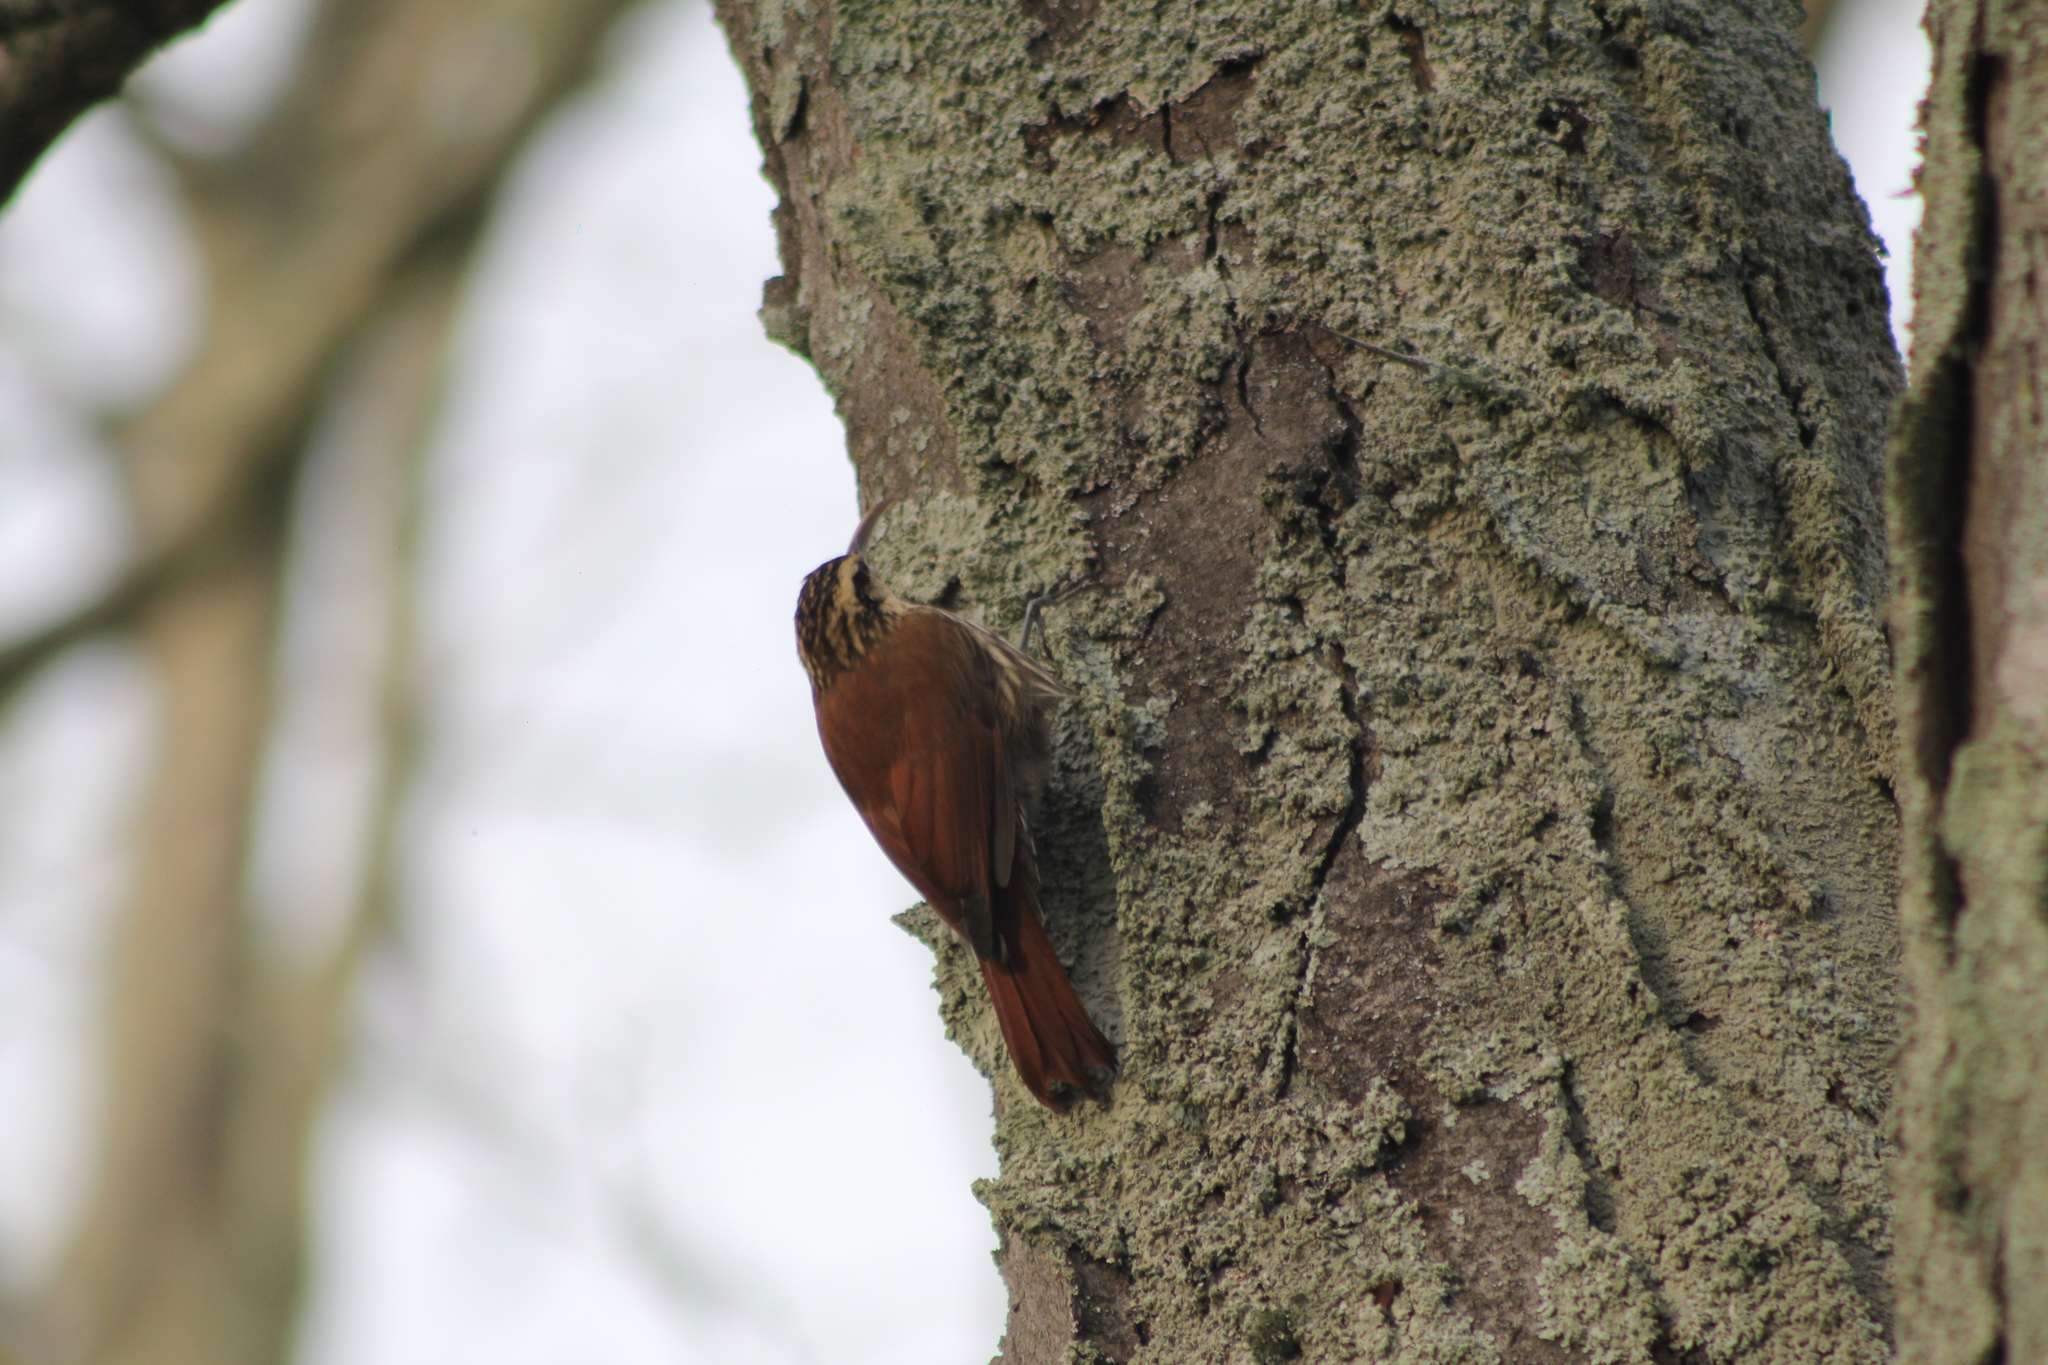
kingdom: Animalia
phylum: Chordata
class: Aves
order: Passeriformes
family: Furnariidae
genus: Lepidocolaptes
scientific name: Lepidocolaptes angustirostris
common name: Narrow-billed woodcreeper
